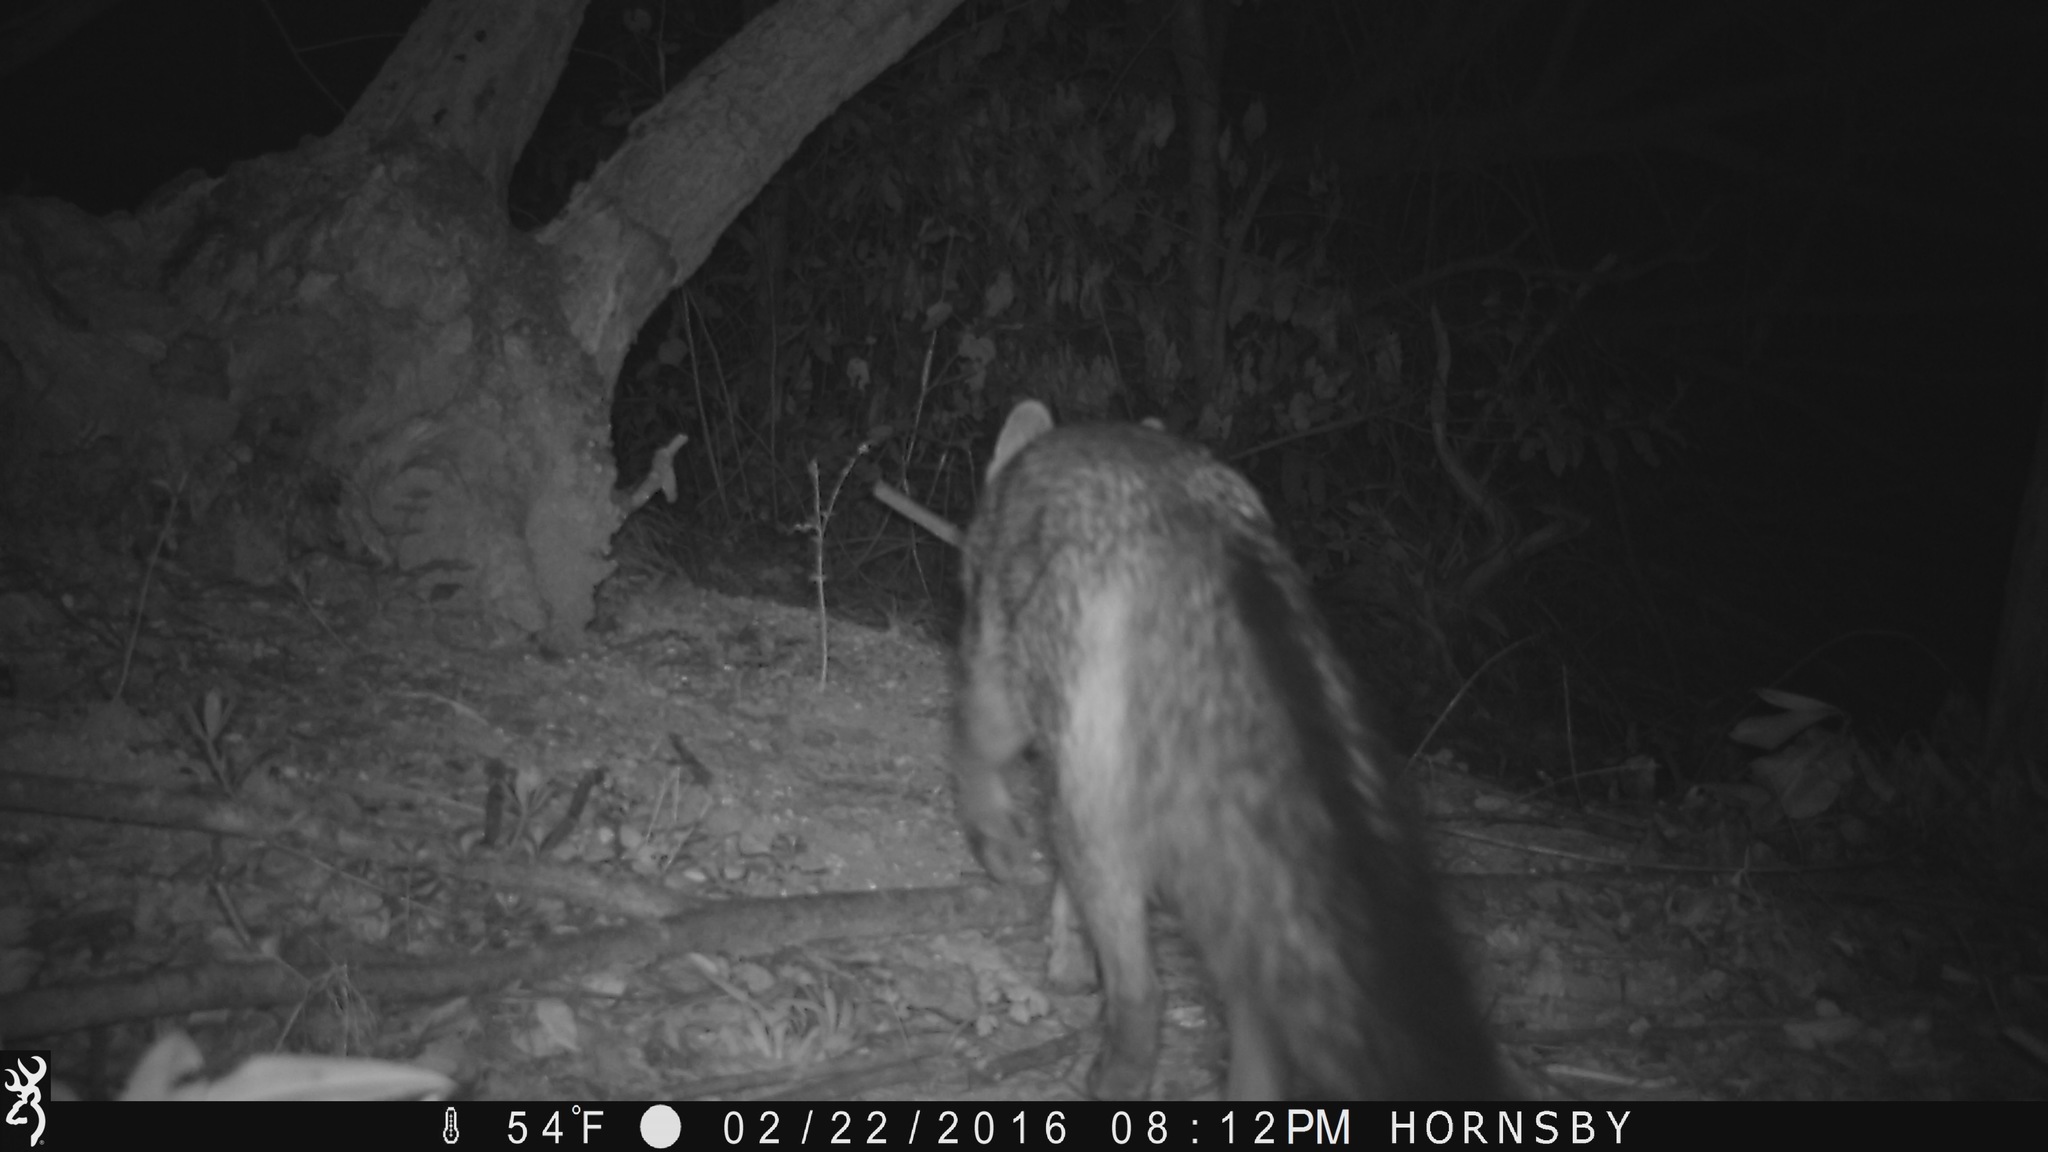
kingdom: Animalia
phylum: Chordata
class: Mammalia
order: Carnivora
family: Canidae
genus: Urocyon
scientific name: Urocyon cinereoargenteus
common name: Gray fox
